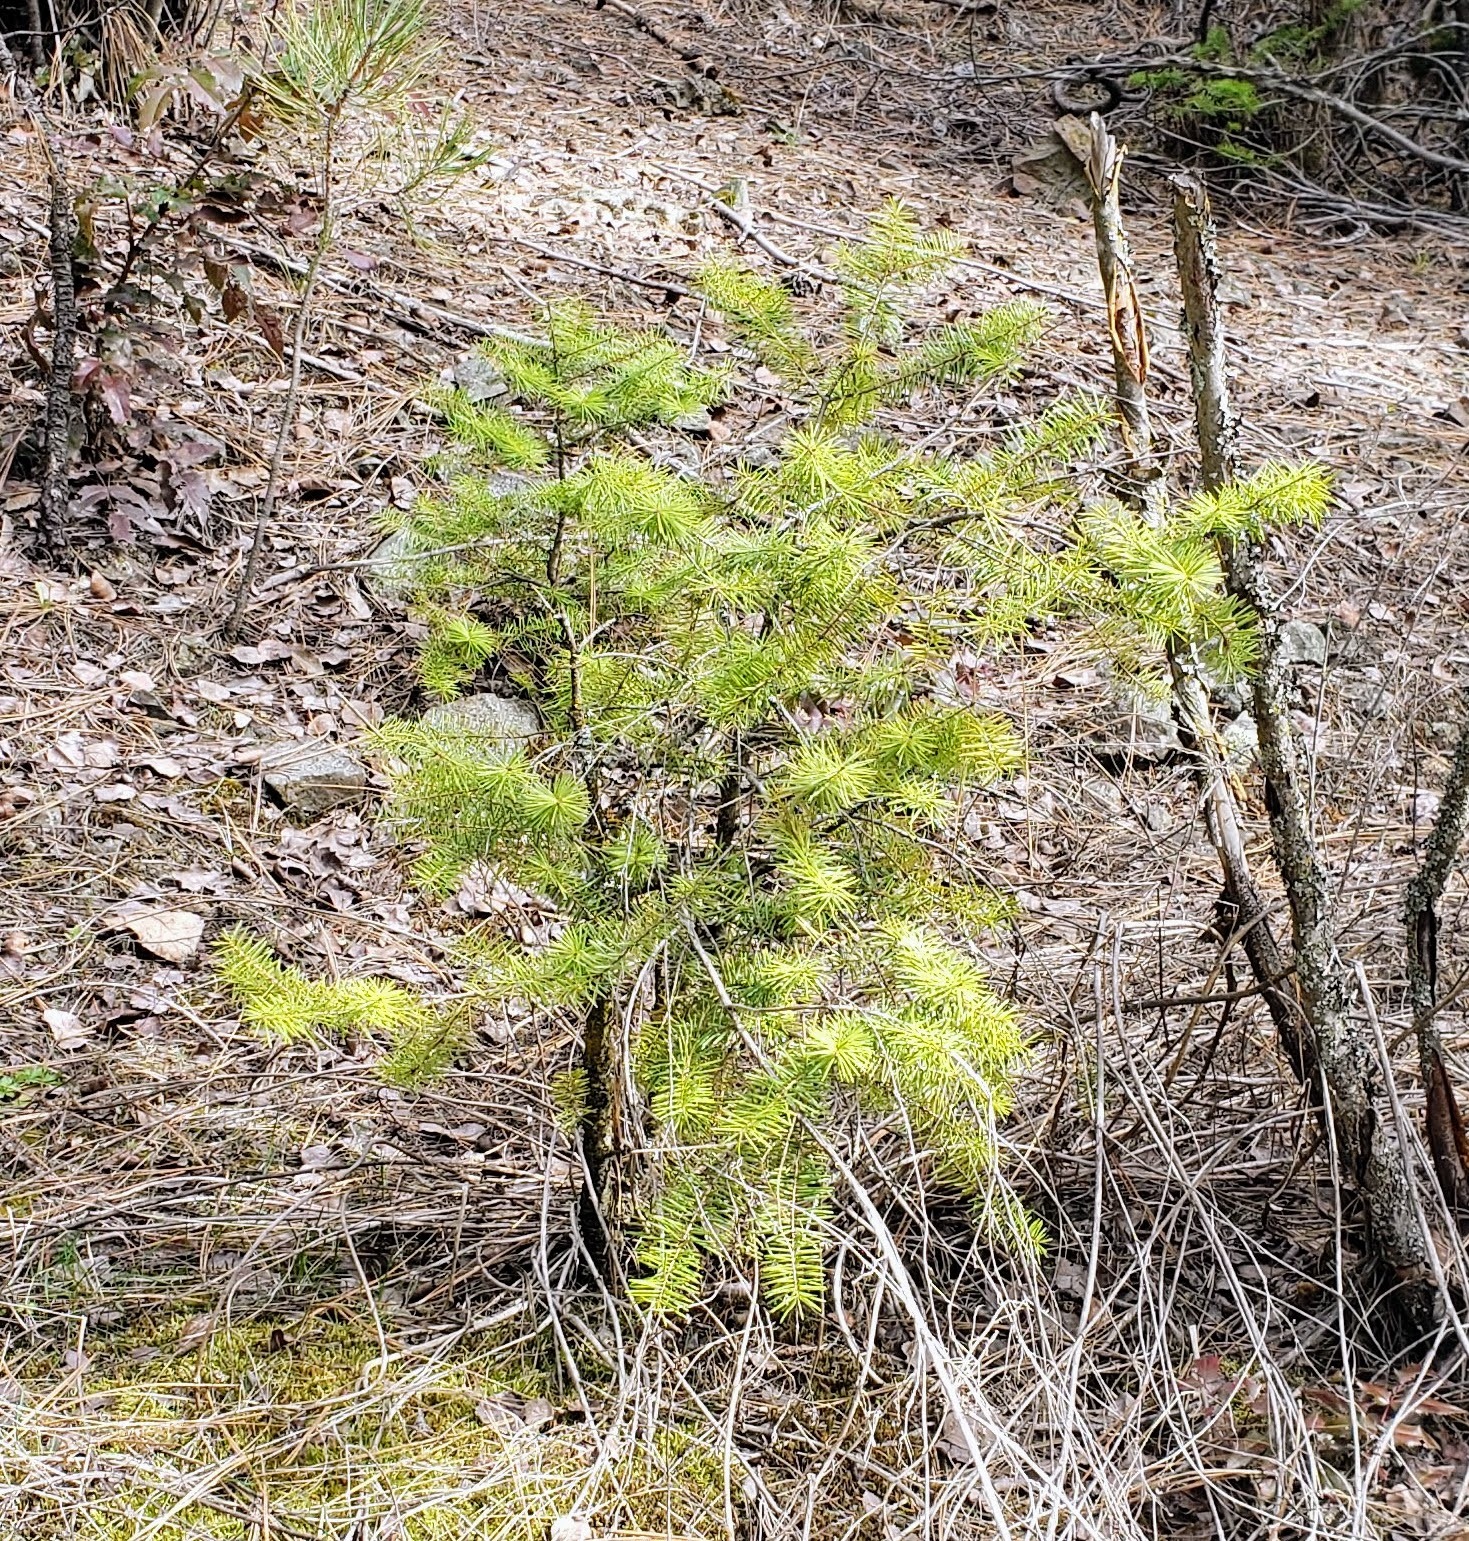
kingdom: Plantae
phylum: Tracheophyta
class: Pinopsida
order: Pinales
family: Pinaceae
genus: Pseudotsuga
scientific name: Pseudotsuga menziesii
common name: Douglas fir
